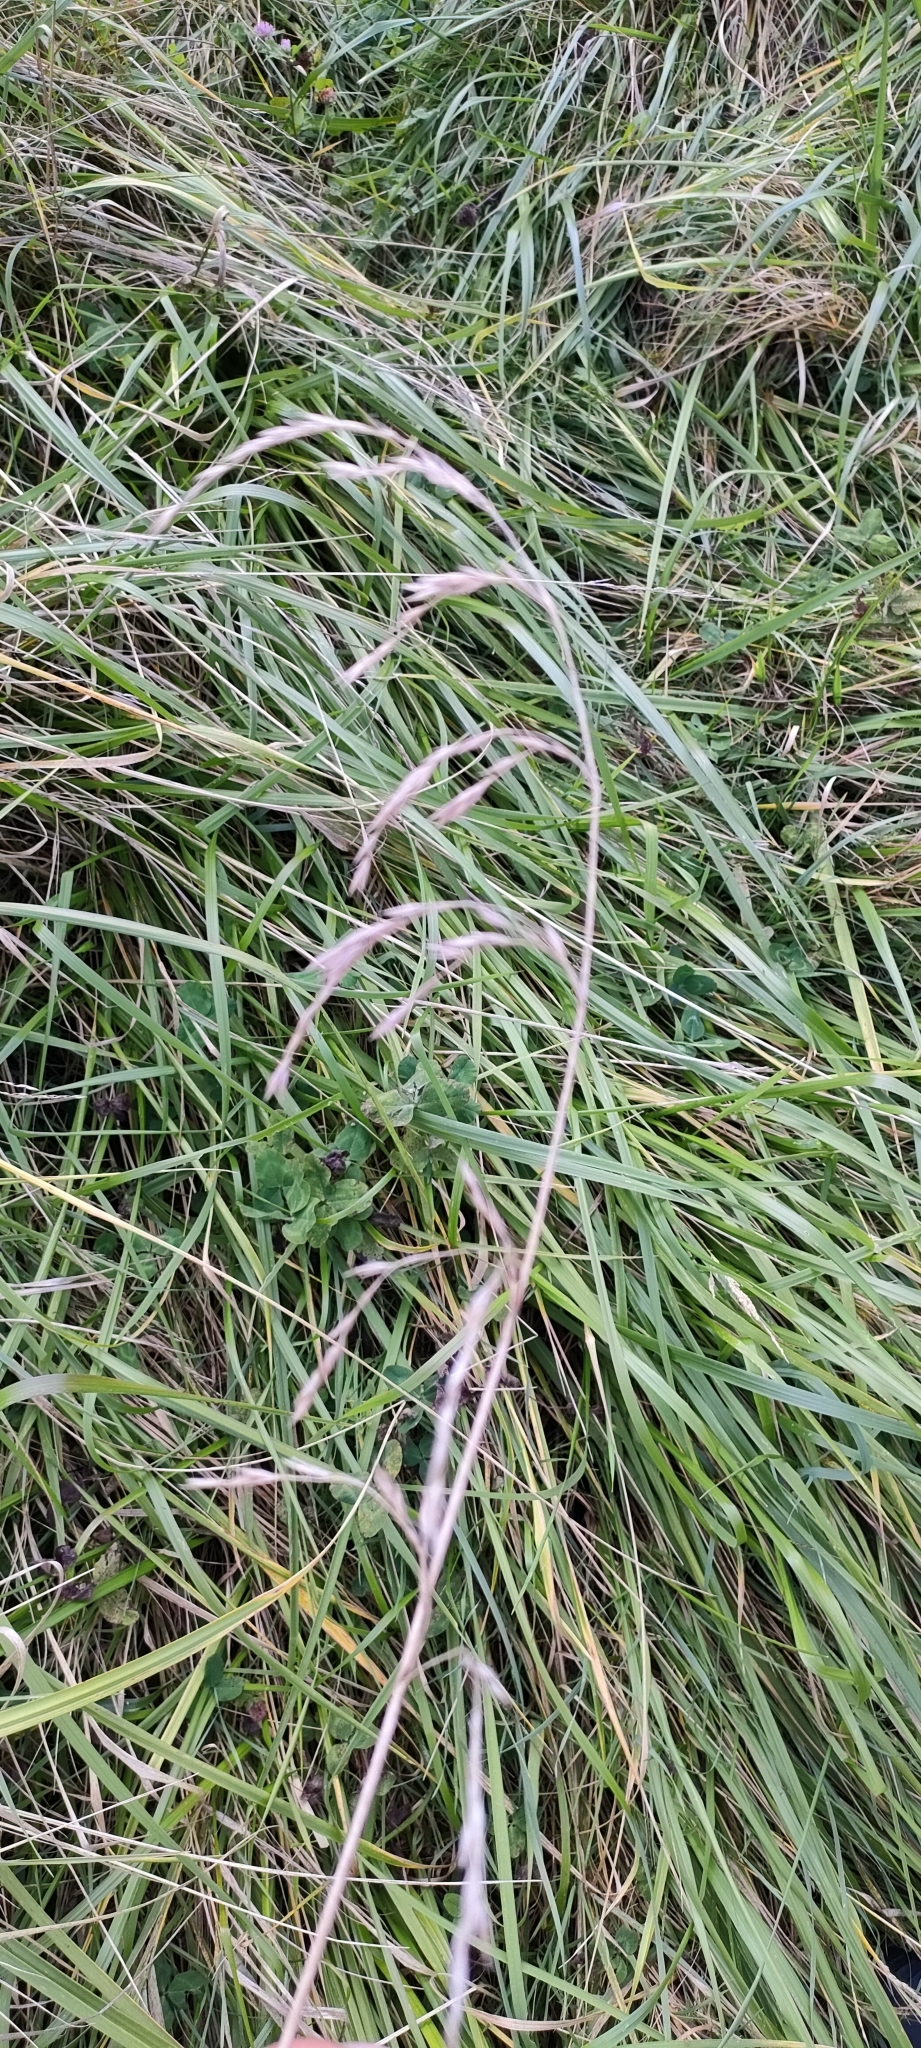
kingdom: Plantae
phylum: Tracheophyta
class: Liliopsida
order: Poales
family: Poaceae
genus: Lolium
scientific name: Lolium arundinaceum
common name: Reed fescue
